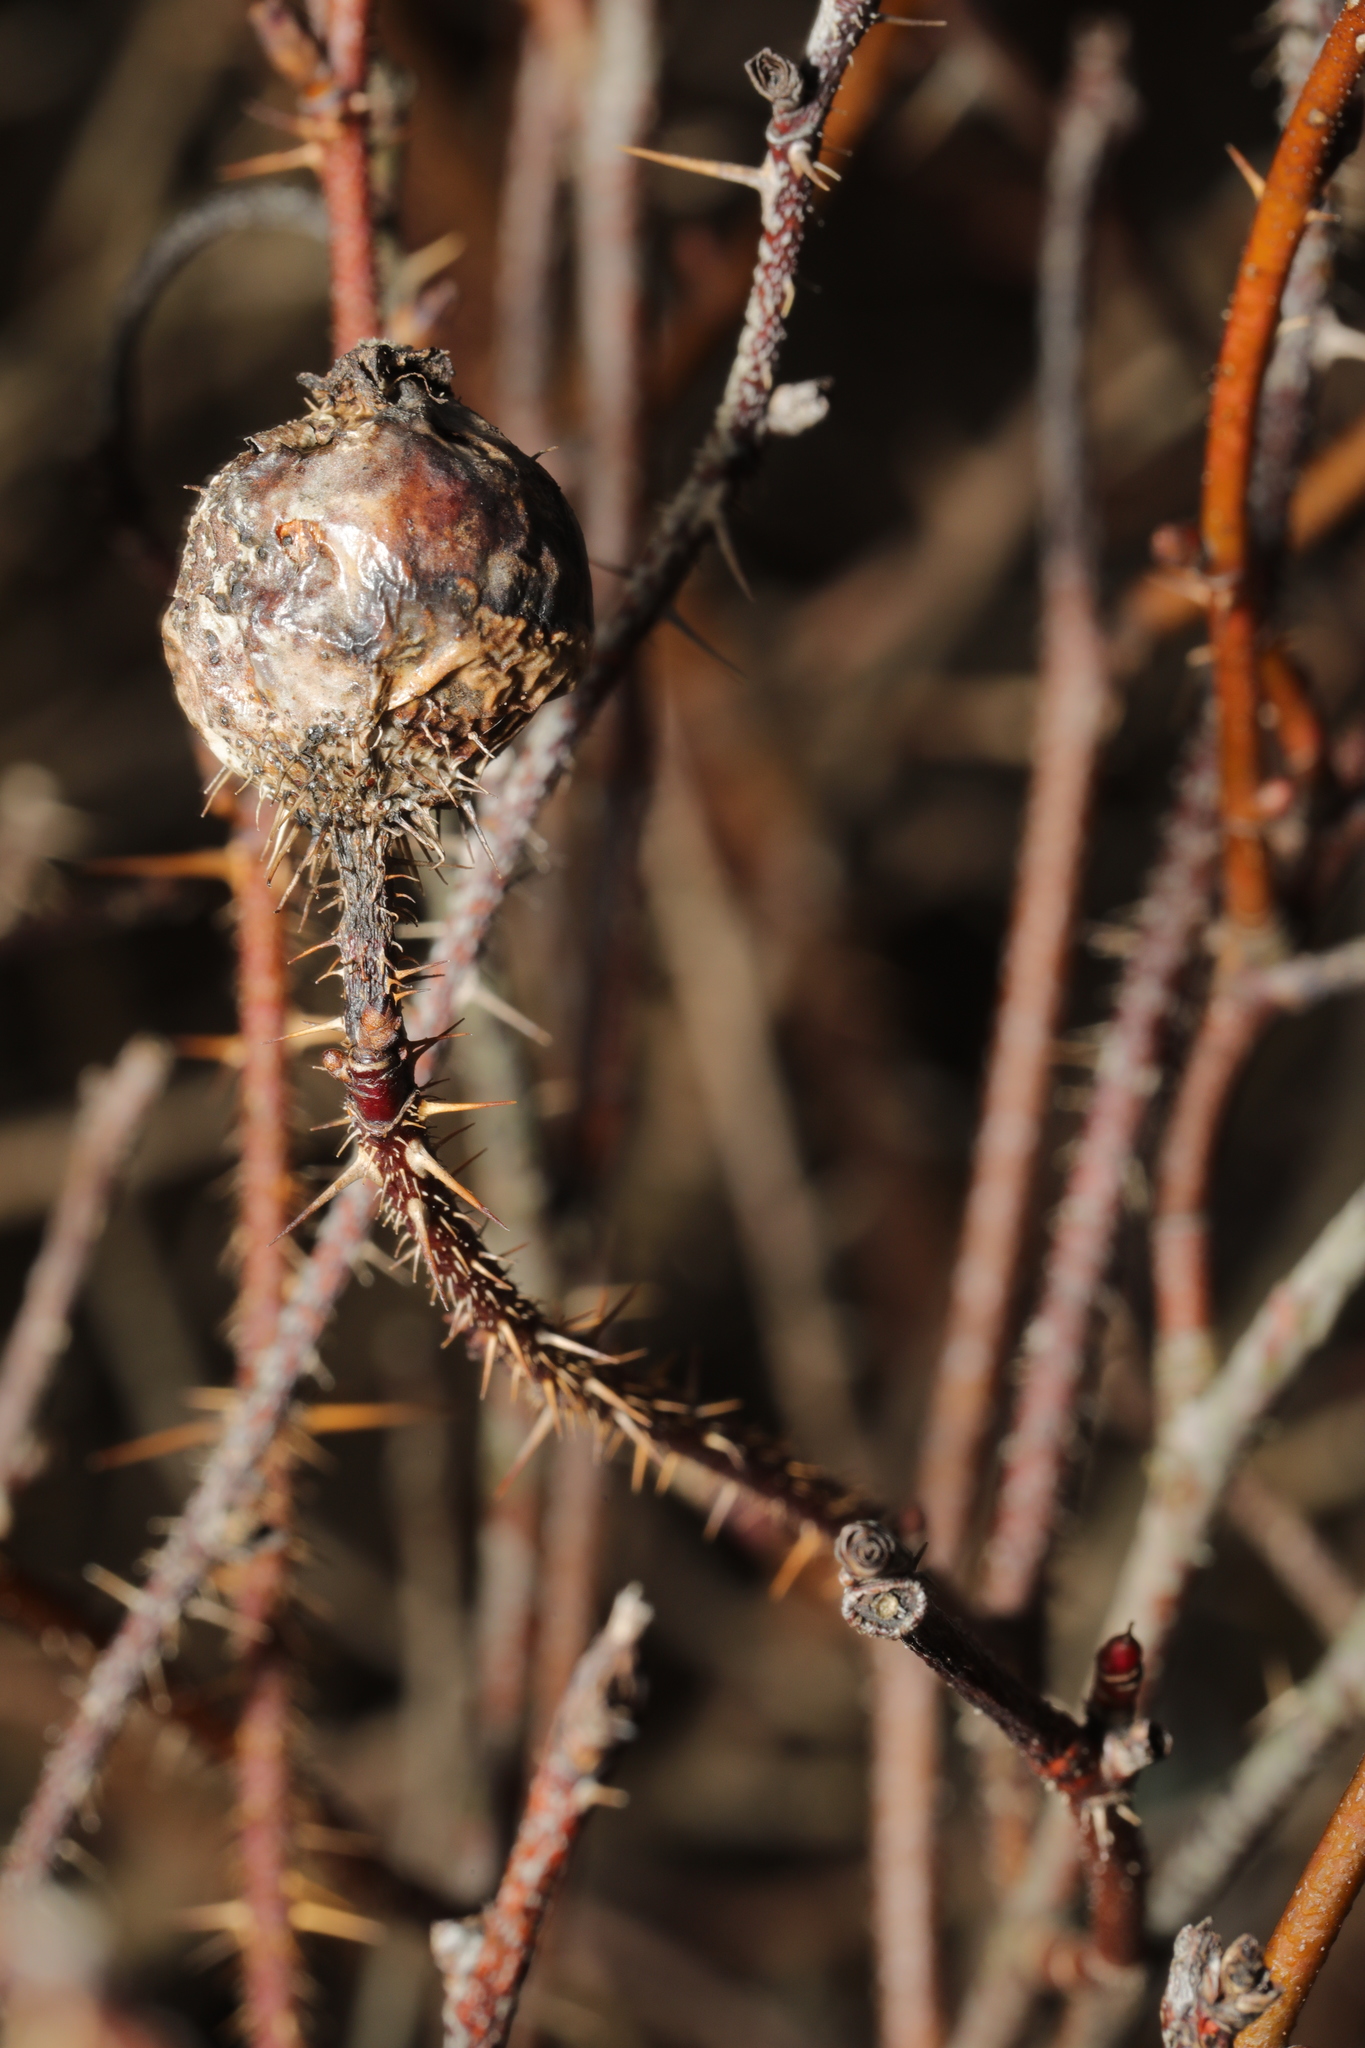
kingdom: Plantae
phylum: Tracheophyta
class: Magnoliopsida
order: Rosales
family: Rosaceae
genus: Rosa
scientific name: Rosa spinosissima
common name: Burnet rose
